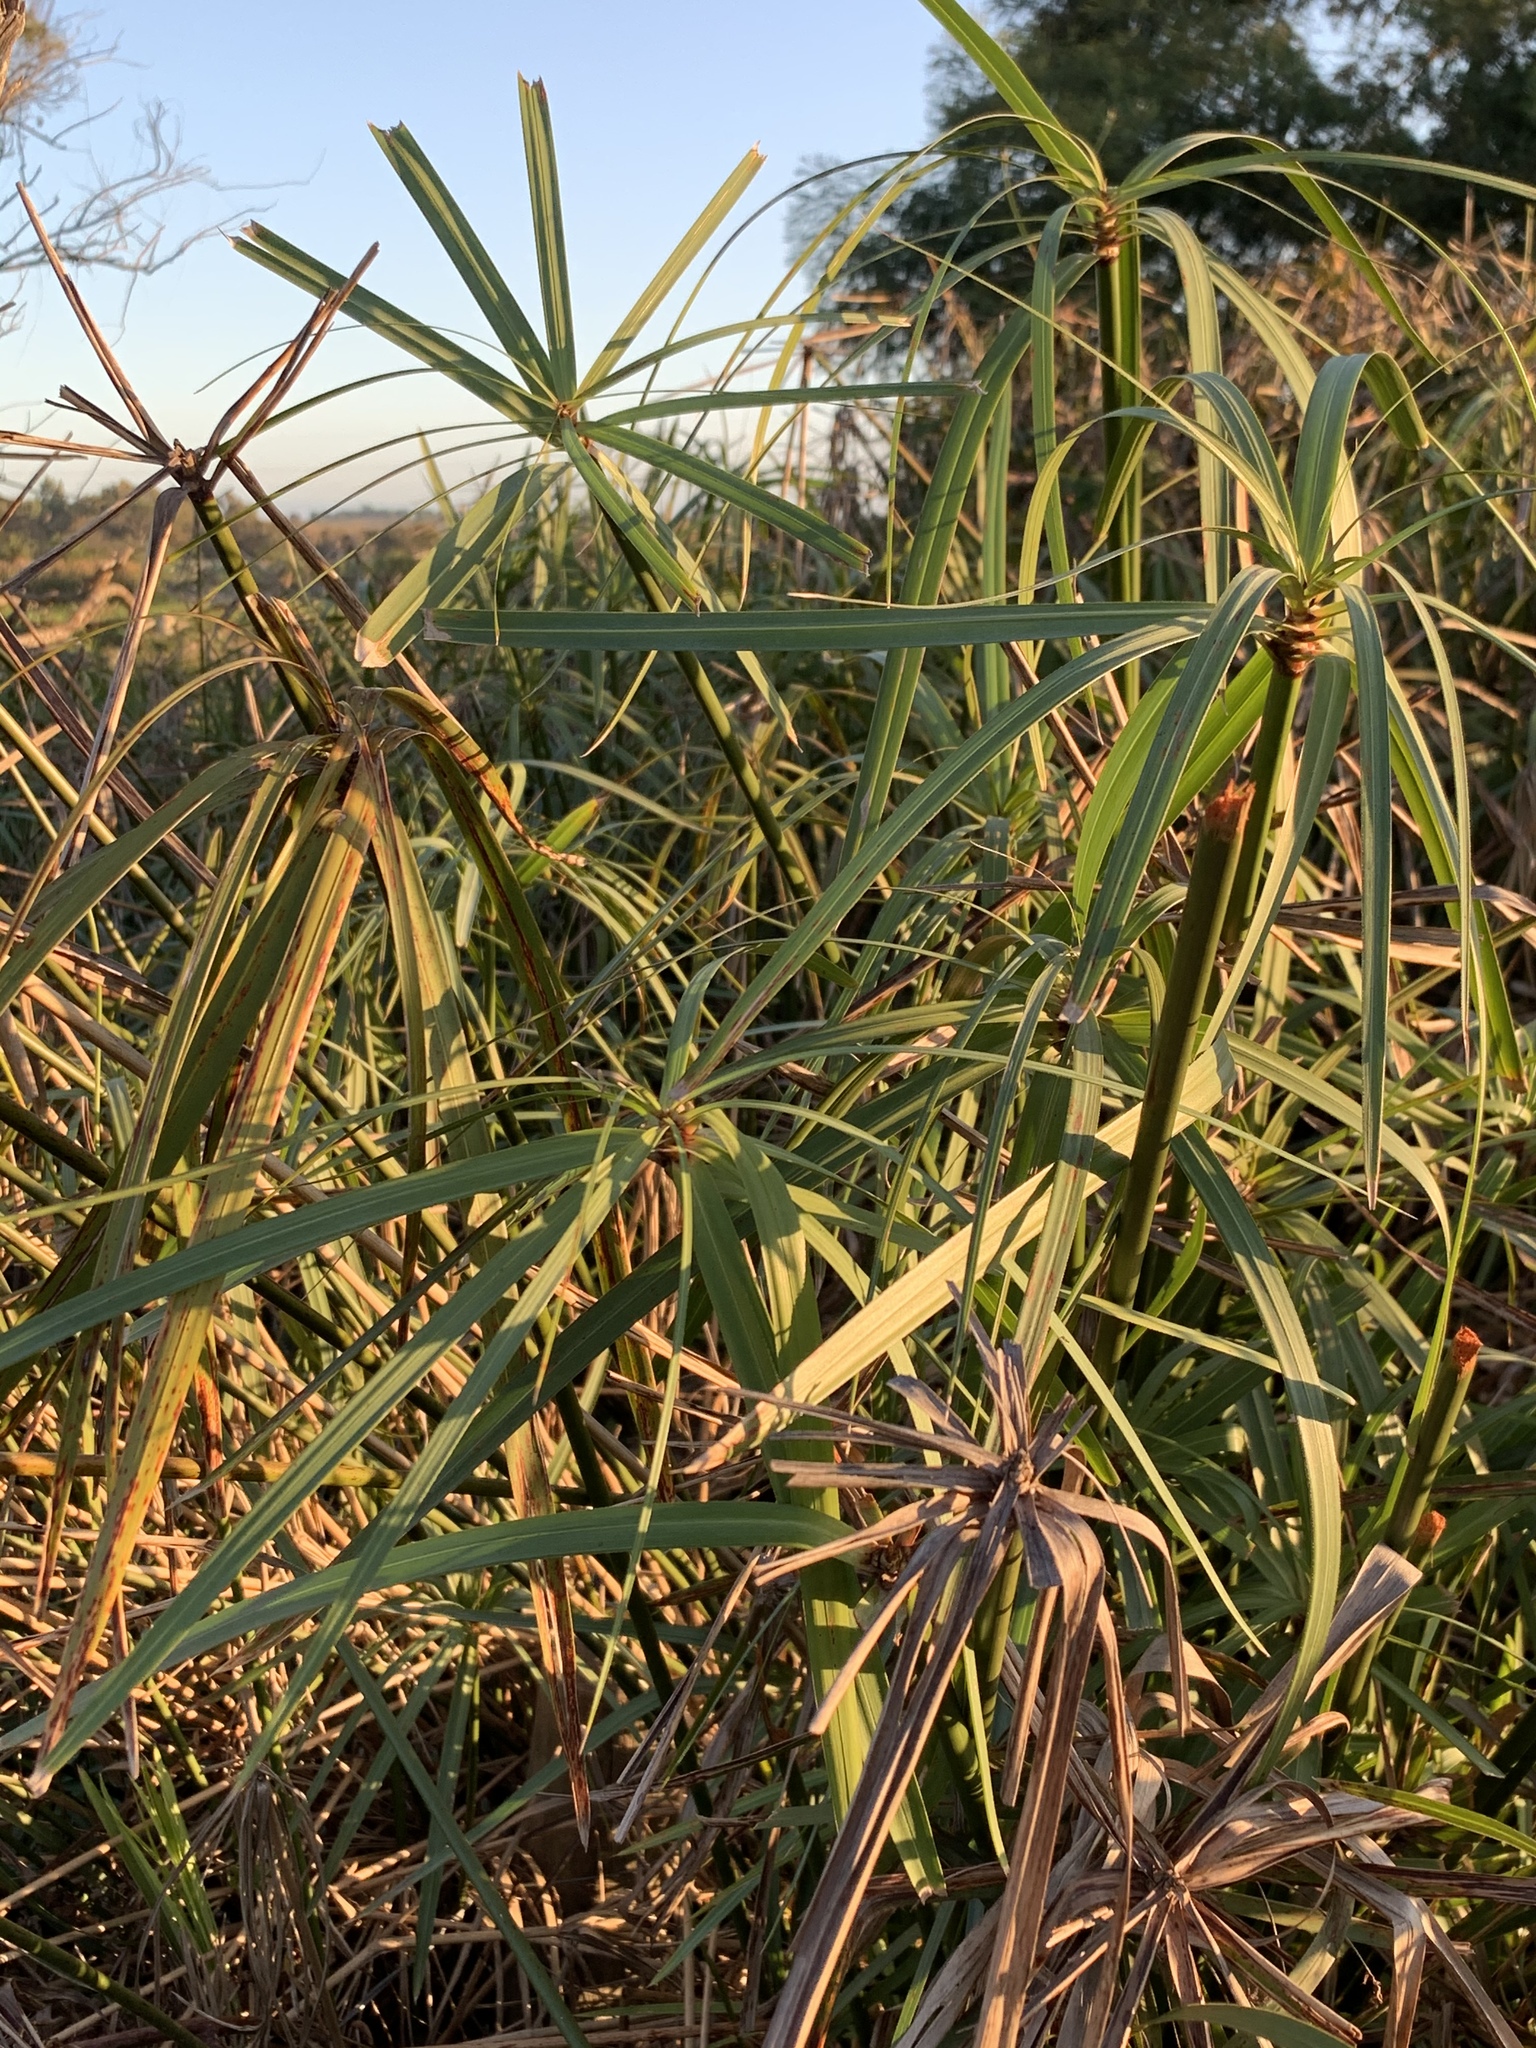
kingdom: Plantae
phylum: Tracheophyta
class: Liliopsida
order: Poales
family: Cyperaceae
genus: Cyperus
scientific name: Cyperus textilis
